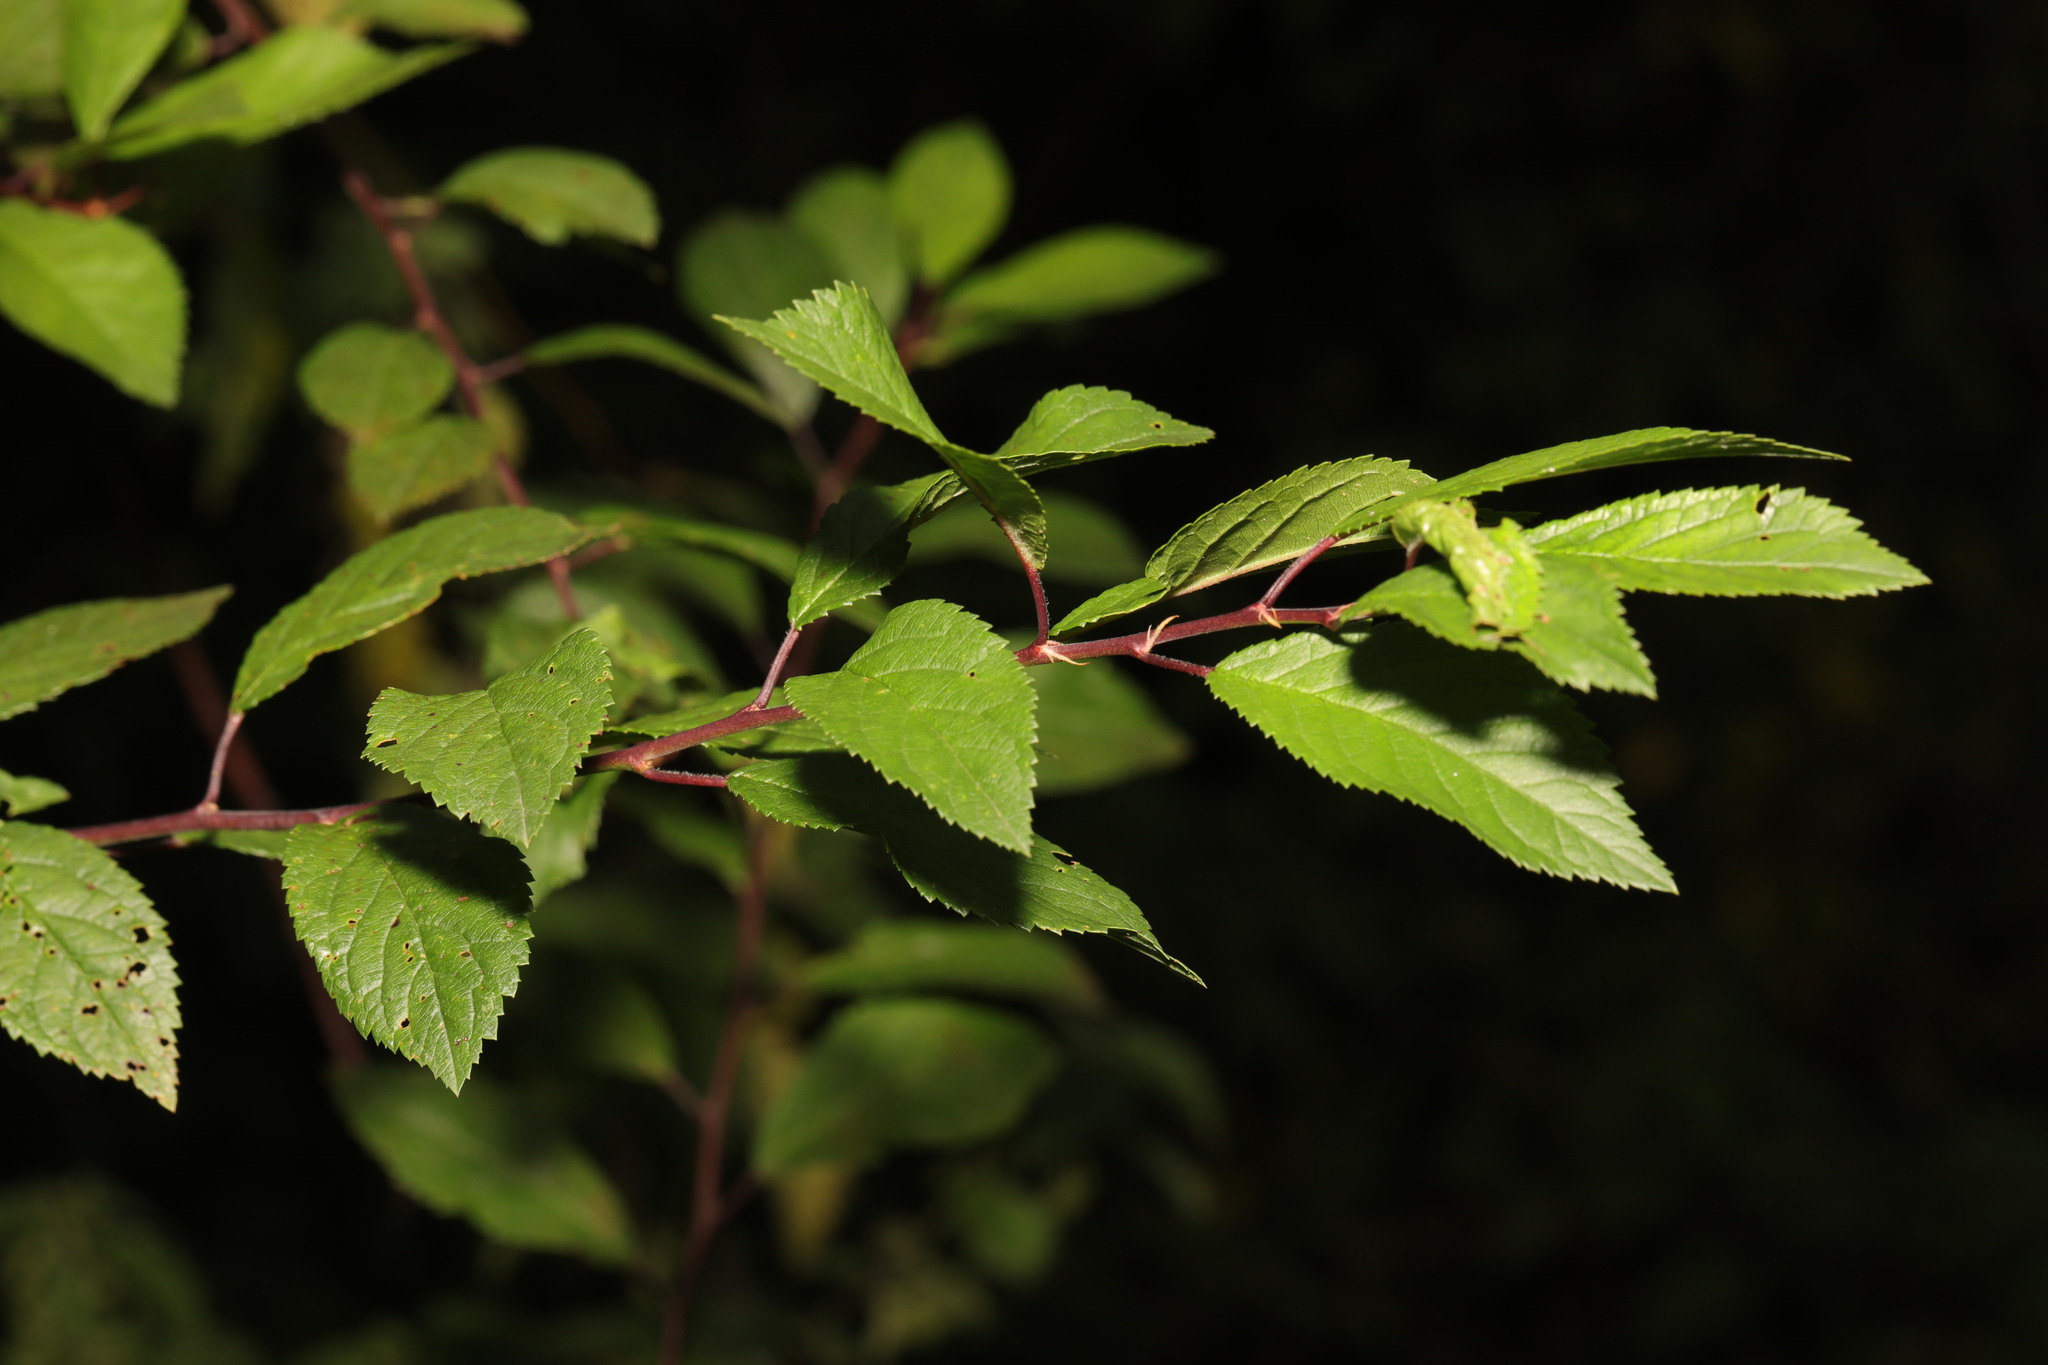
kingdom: Plantae
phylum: Tracheophyta
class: Magnoliopsida
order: Rosales
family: Rosaceae
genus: Prunus
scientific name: Prunus spinosa
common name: Blackthorn
